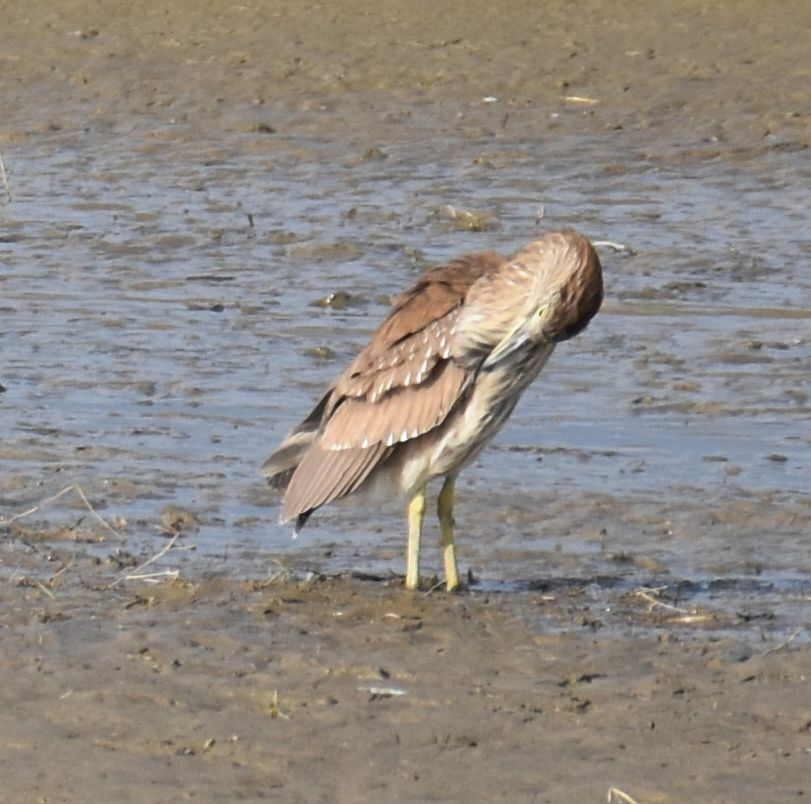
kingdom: Animalia
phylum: Chordata
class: Aves
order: Pelecaniformes
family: Ardeidae
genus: Nycticorax
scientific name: Nycticorax nycticorax
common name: Black-crowned night heron
